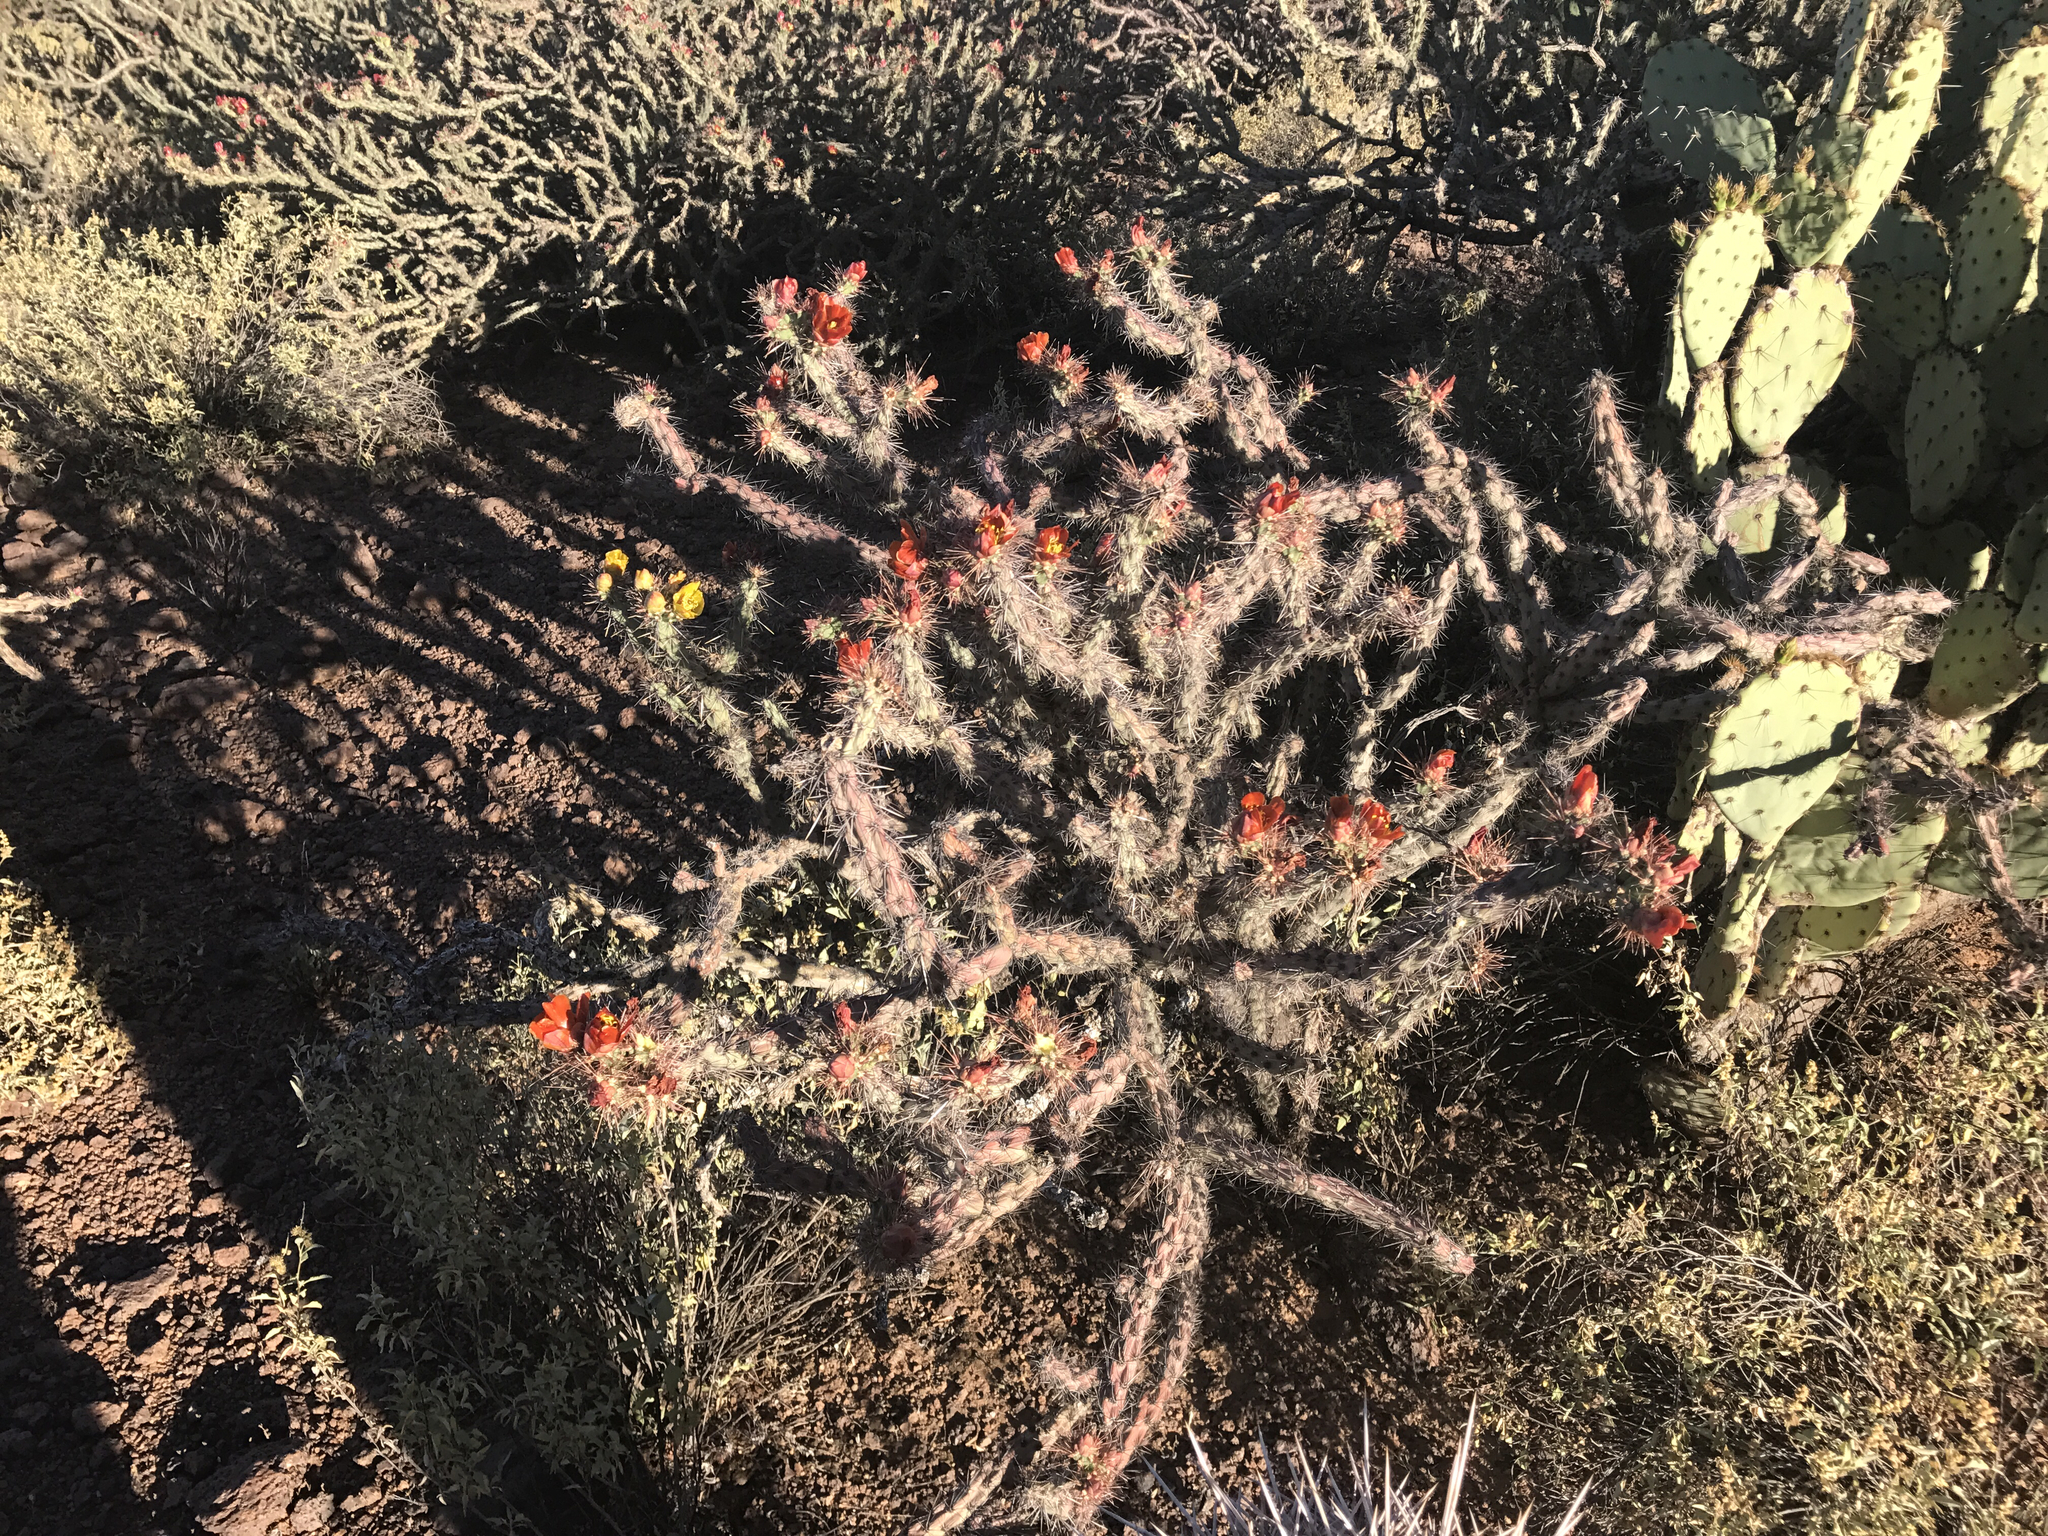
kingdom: Plantae
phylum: Tracheophyta
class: Magnoliopsida
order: Caryophyllales
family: Cactaceae
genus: Cylindropuntia
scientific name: Cylindropuntia thurberi
